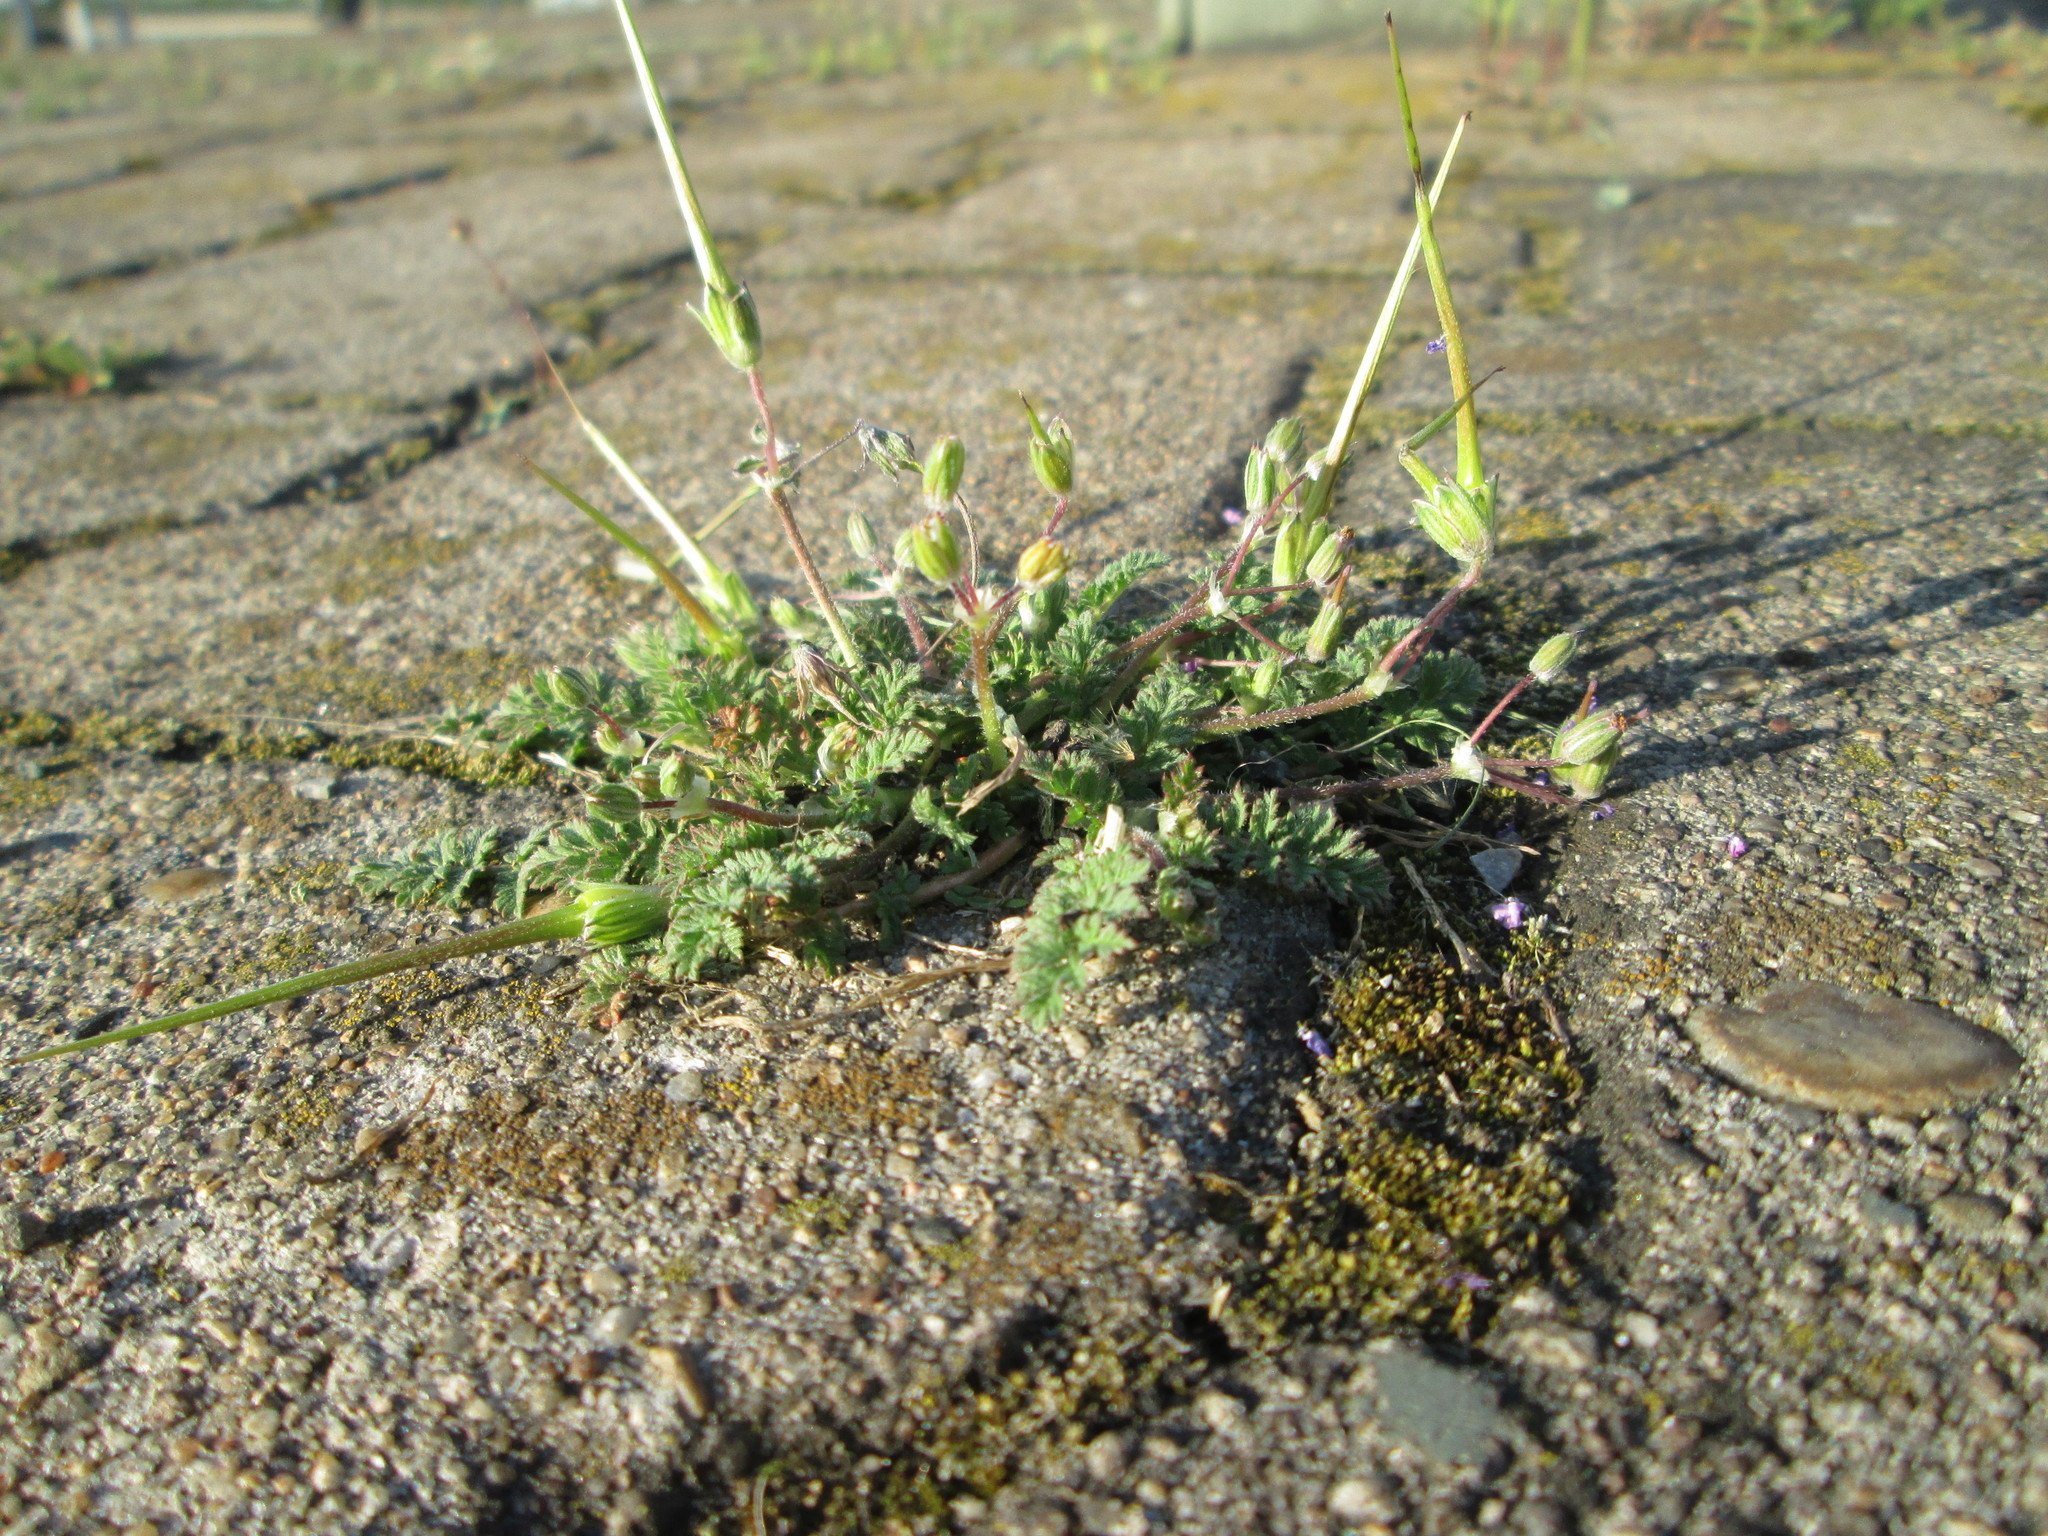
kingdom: Plantae
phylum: Tracheophyta
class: Magnoliopsida
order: Geraniales
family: Geraniaceae
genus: Erodium
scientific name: Erodium cicutarium
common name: Common stork's-bill
